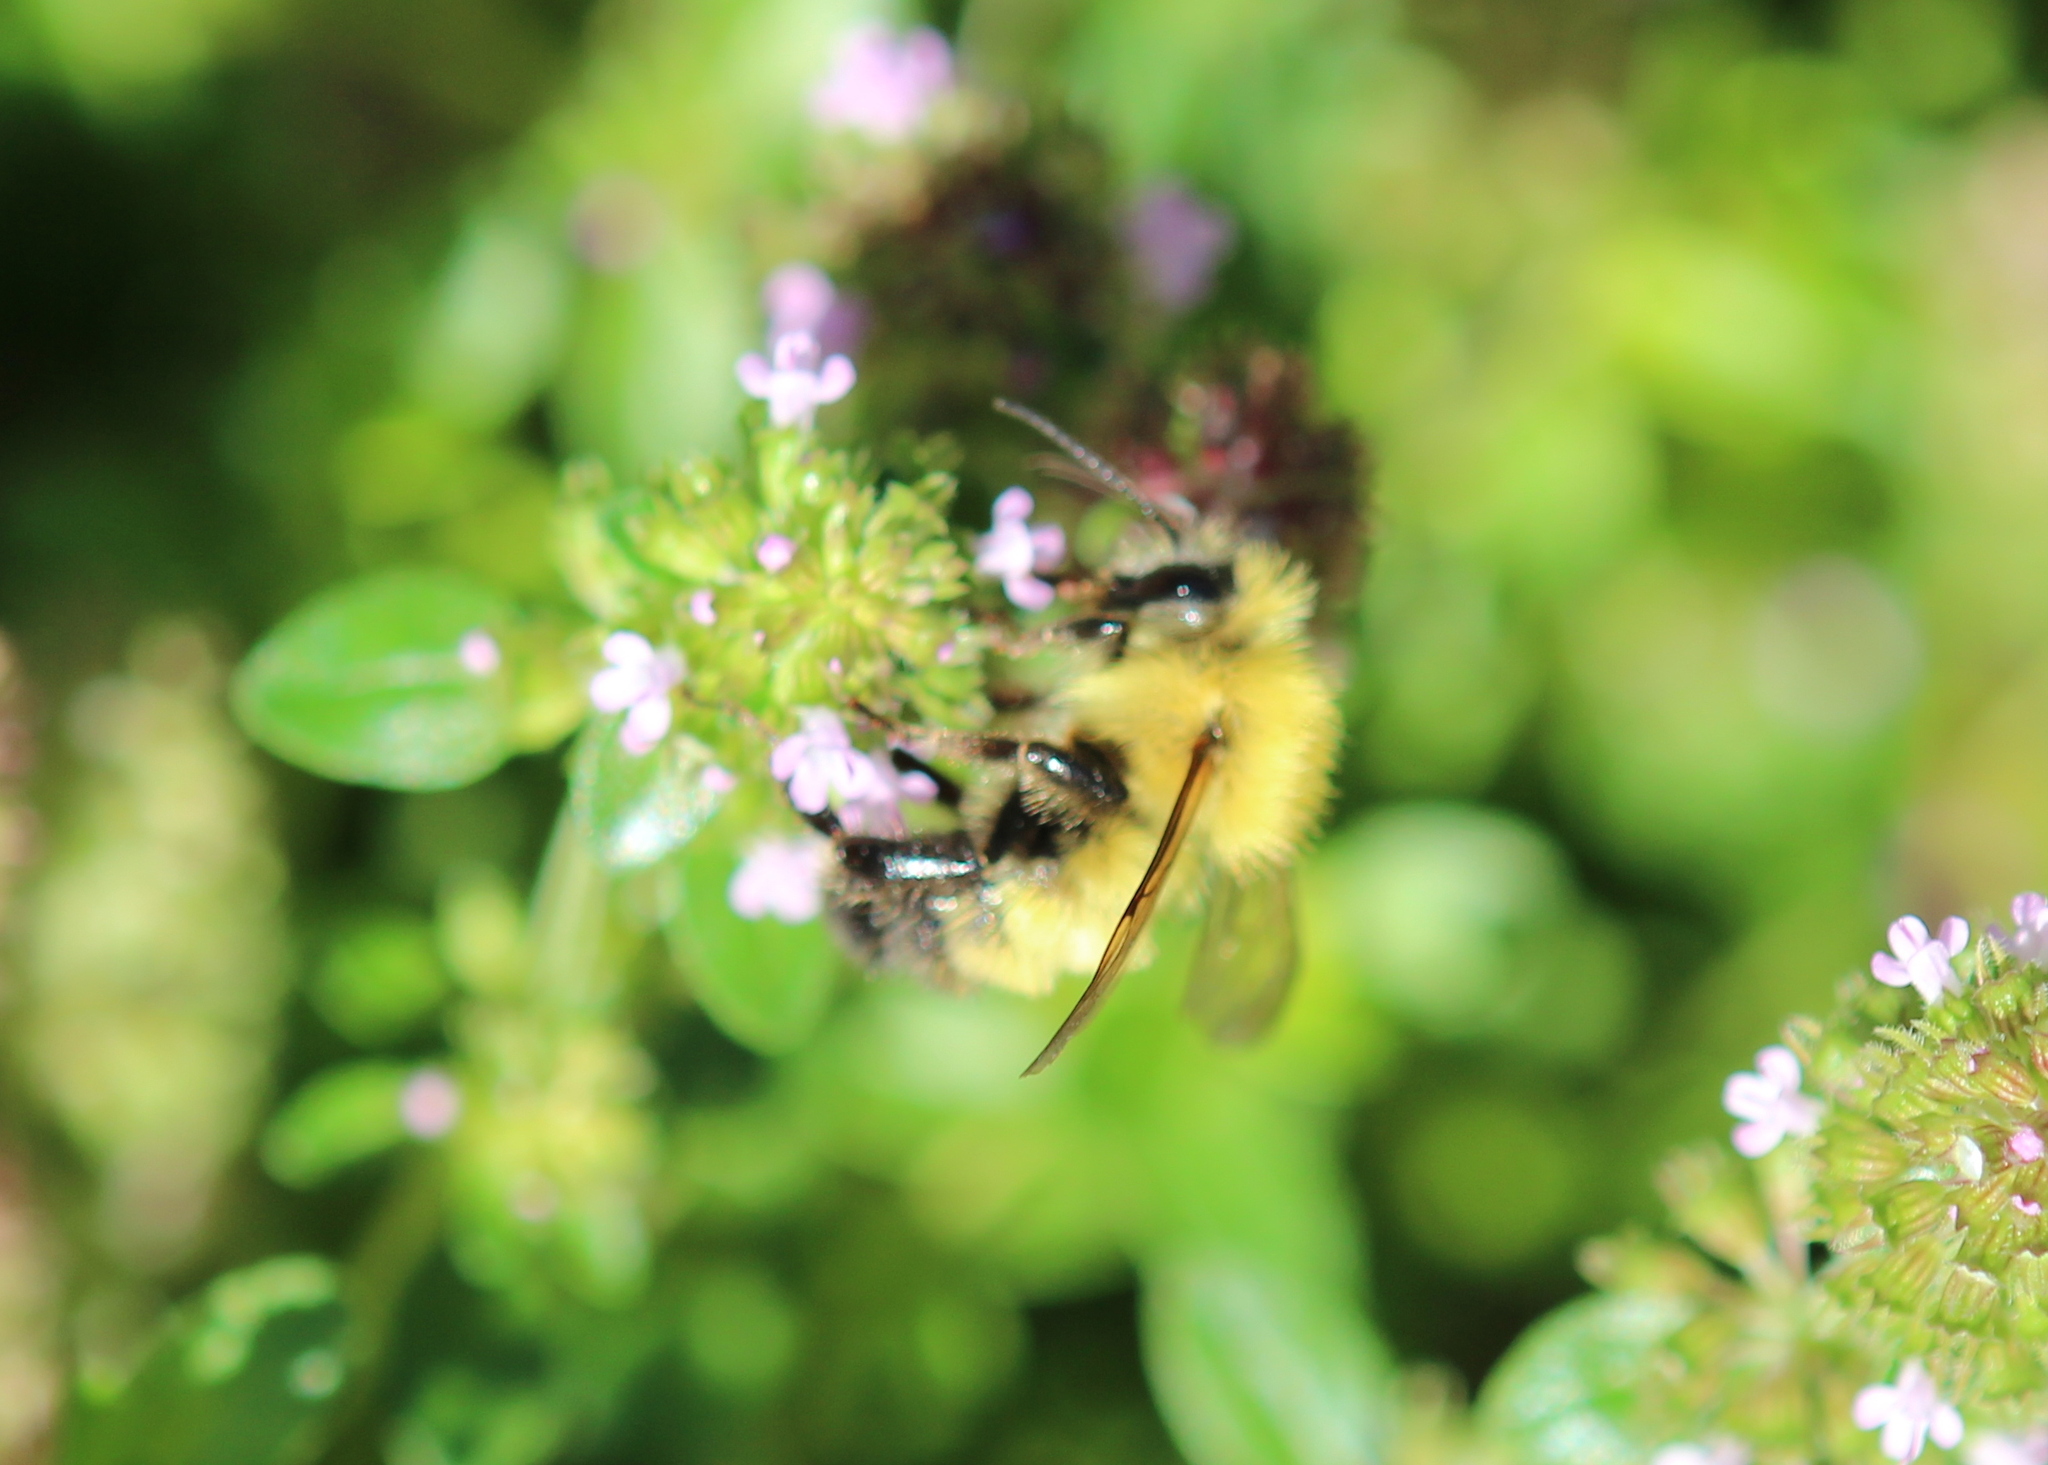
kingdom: Animalia
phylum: Arthropoda
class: Insecta
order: Hymenoptera
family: Apidae
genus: Bombus
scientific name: Bombus perplexus
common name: Confusing bumble bee
